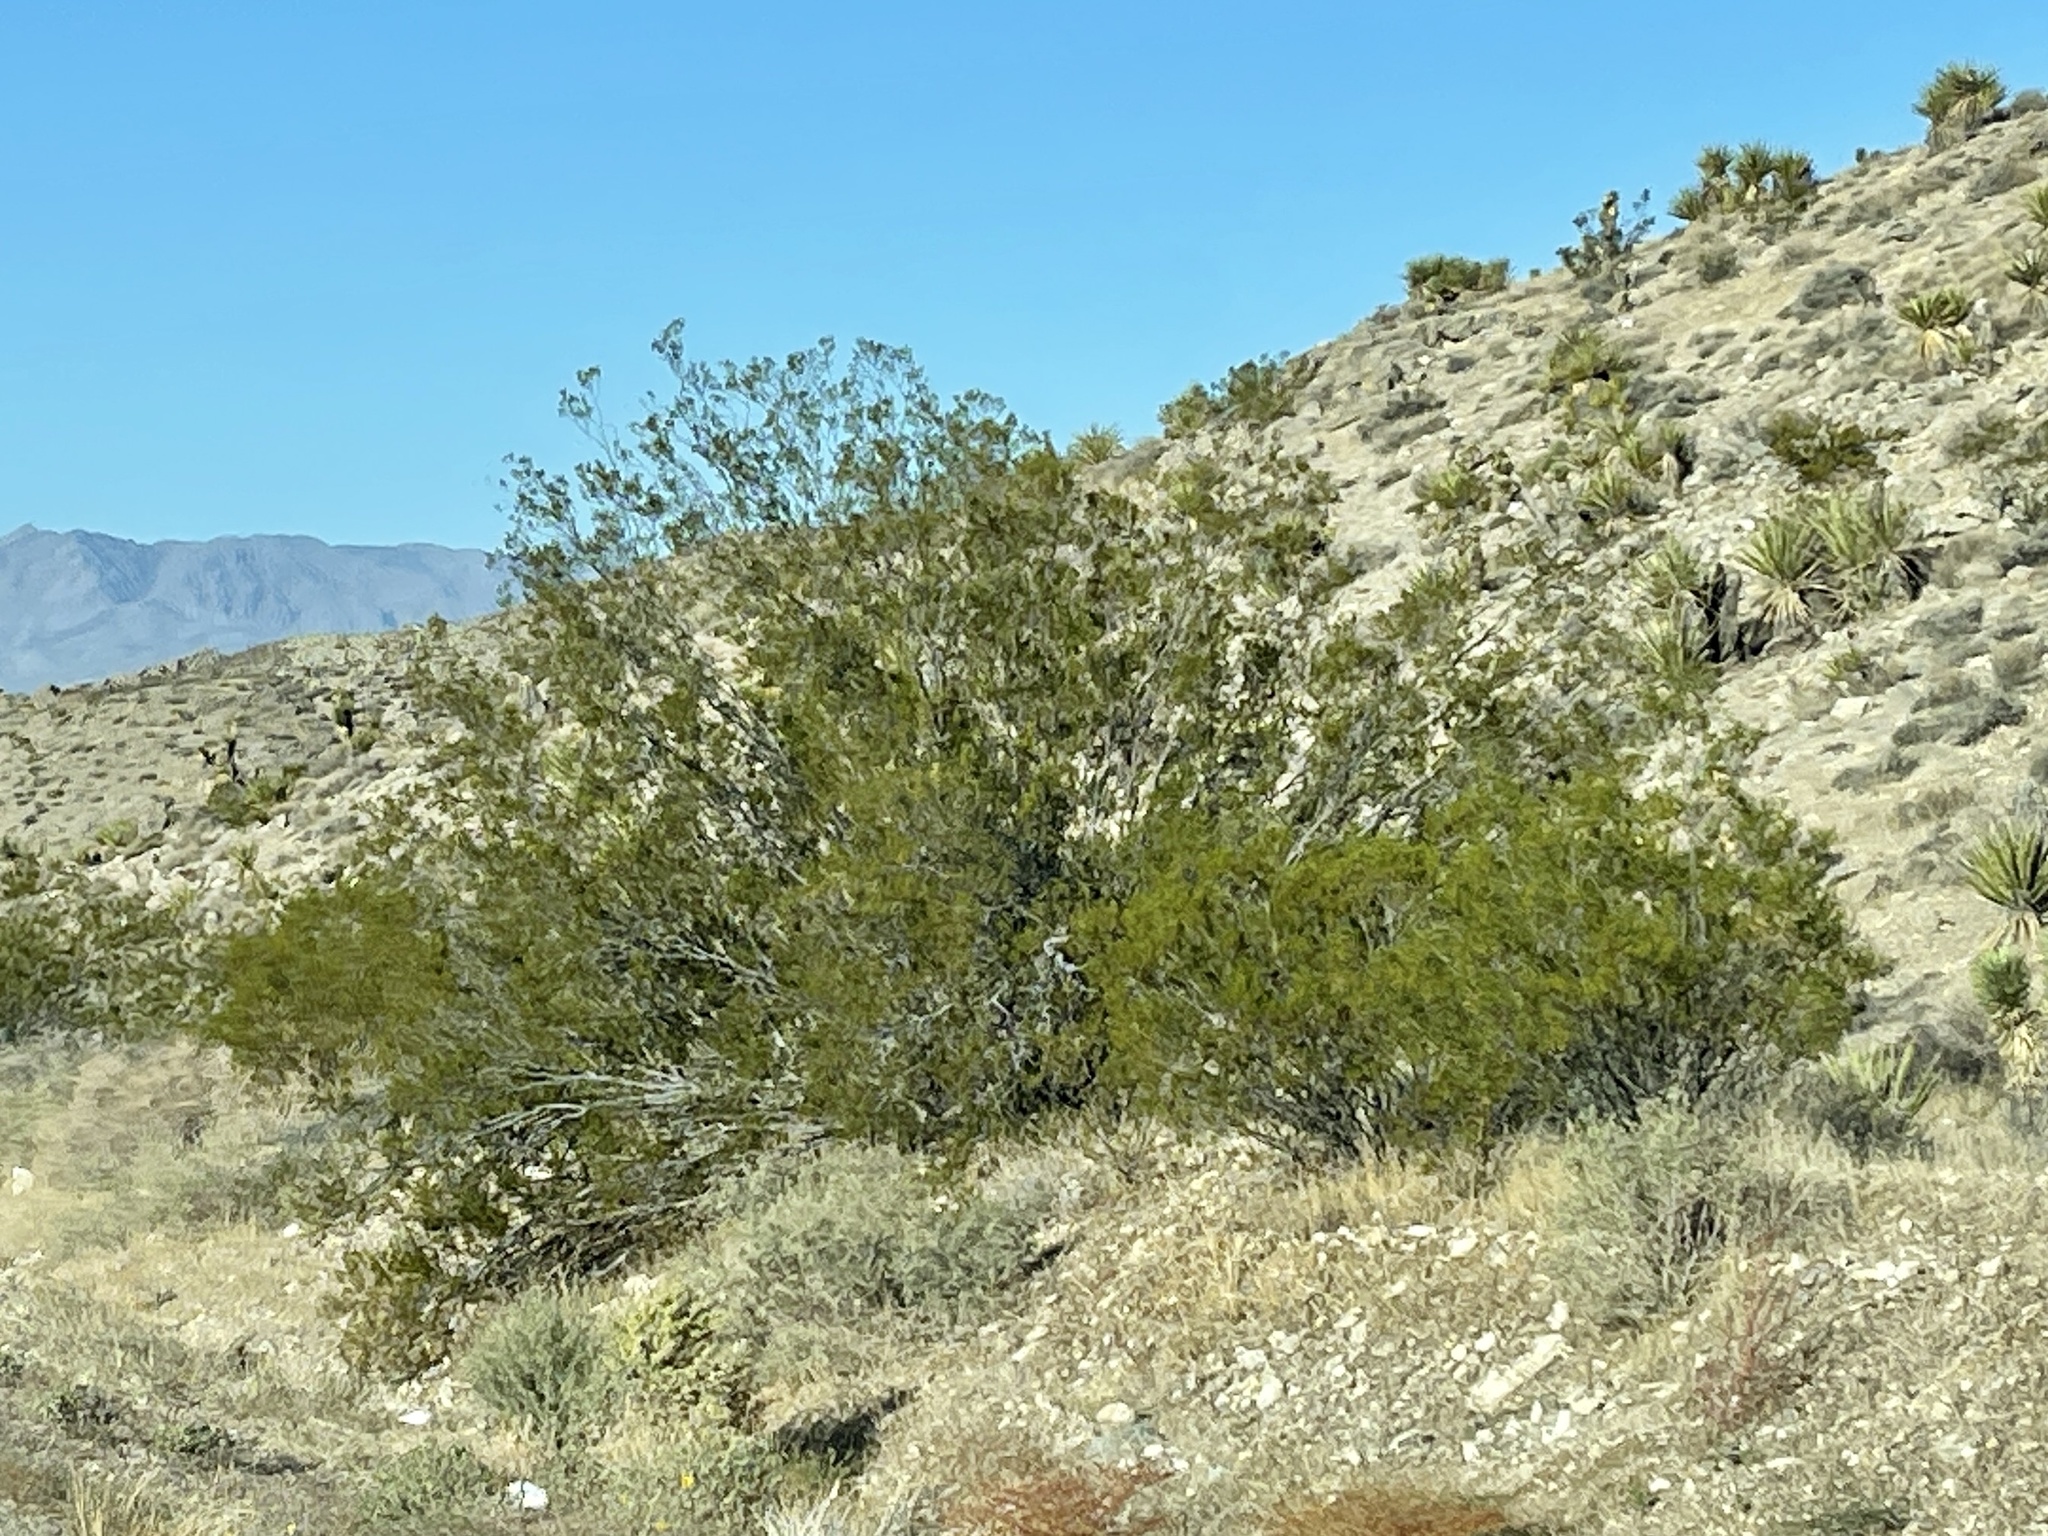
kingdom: Plantae
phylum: Tracheophyta
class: Magnoliopsida
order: Zygophyllales
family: Zygophyllaceae
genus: Larrea
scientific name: Larrea tridentata
